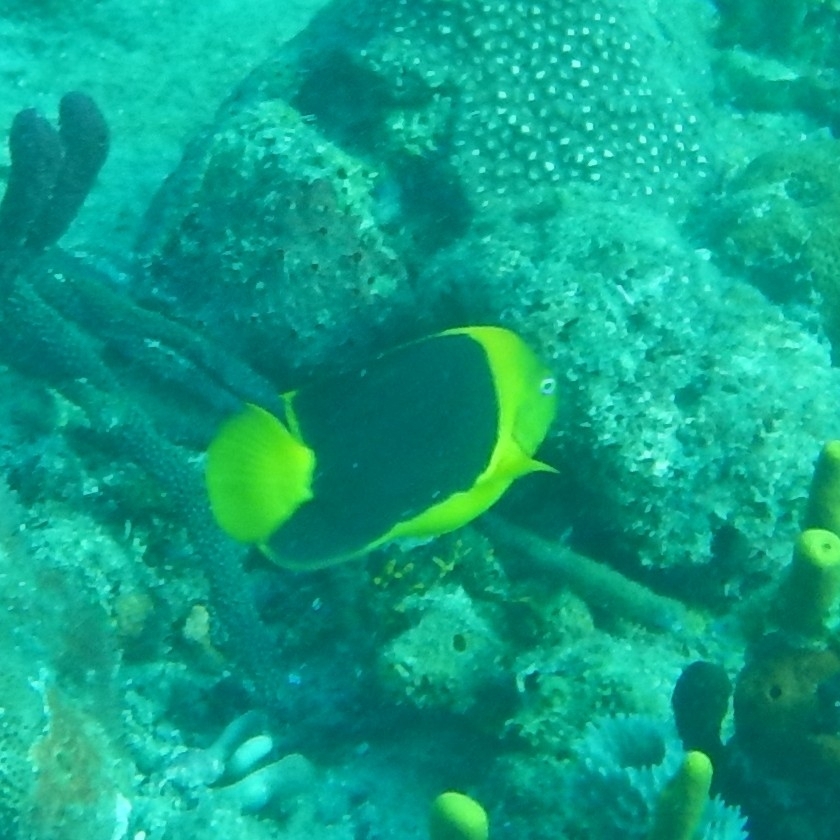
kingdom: Animalia
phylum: Chordata
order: Perciformes
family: Pomacanthidae
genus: Holacanthus
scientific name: Holacanthus tricolor
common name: Rock beauty
